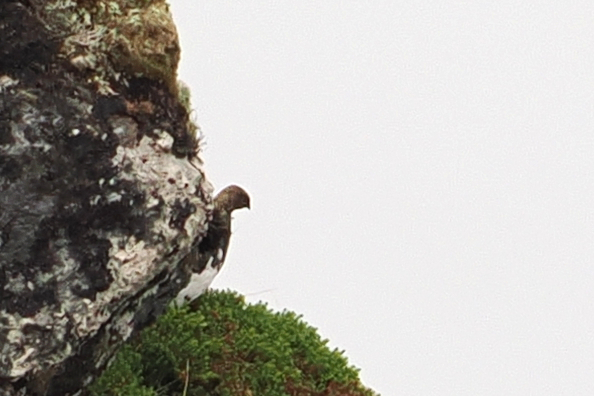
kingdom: Animalia
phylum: Chordata
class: Aves
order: Galliformes
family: Phasianidae
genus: Lagopus
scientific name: Lagopus muta
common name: Rock ptarmigan
